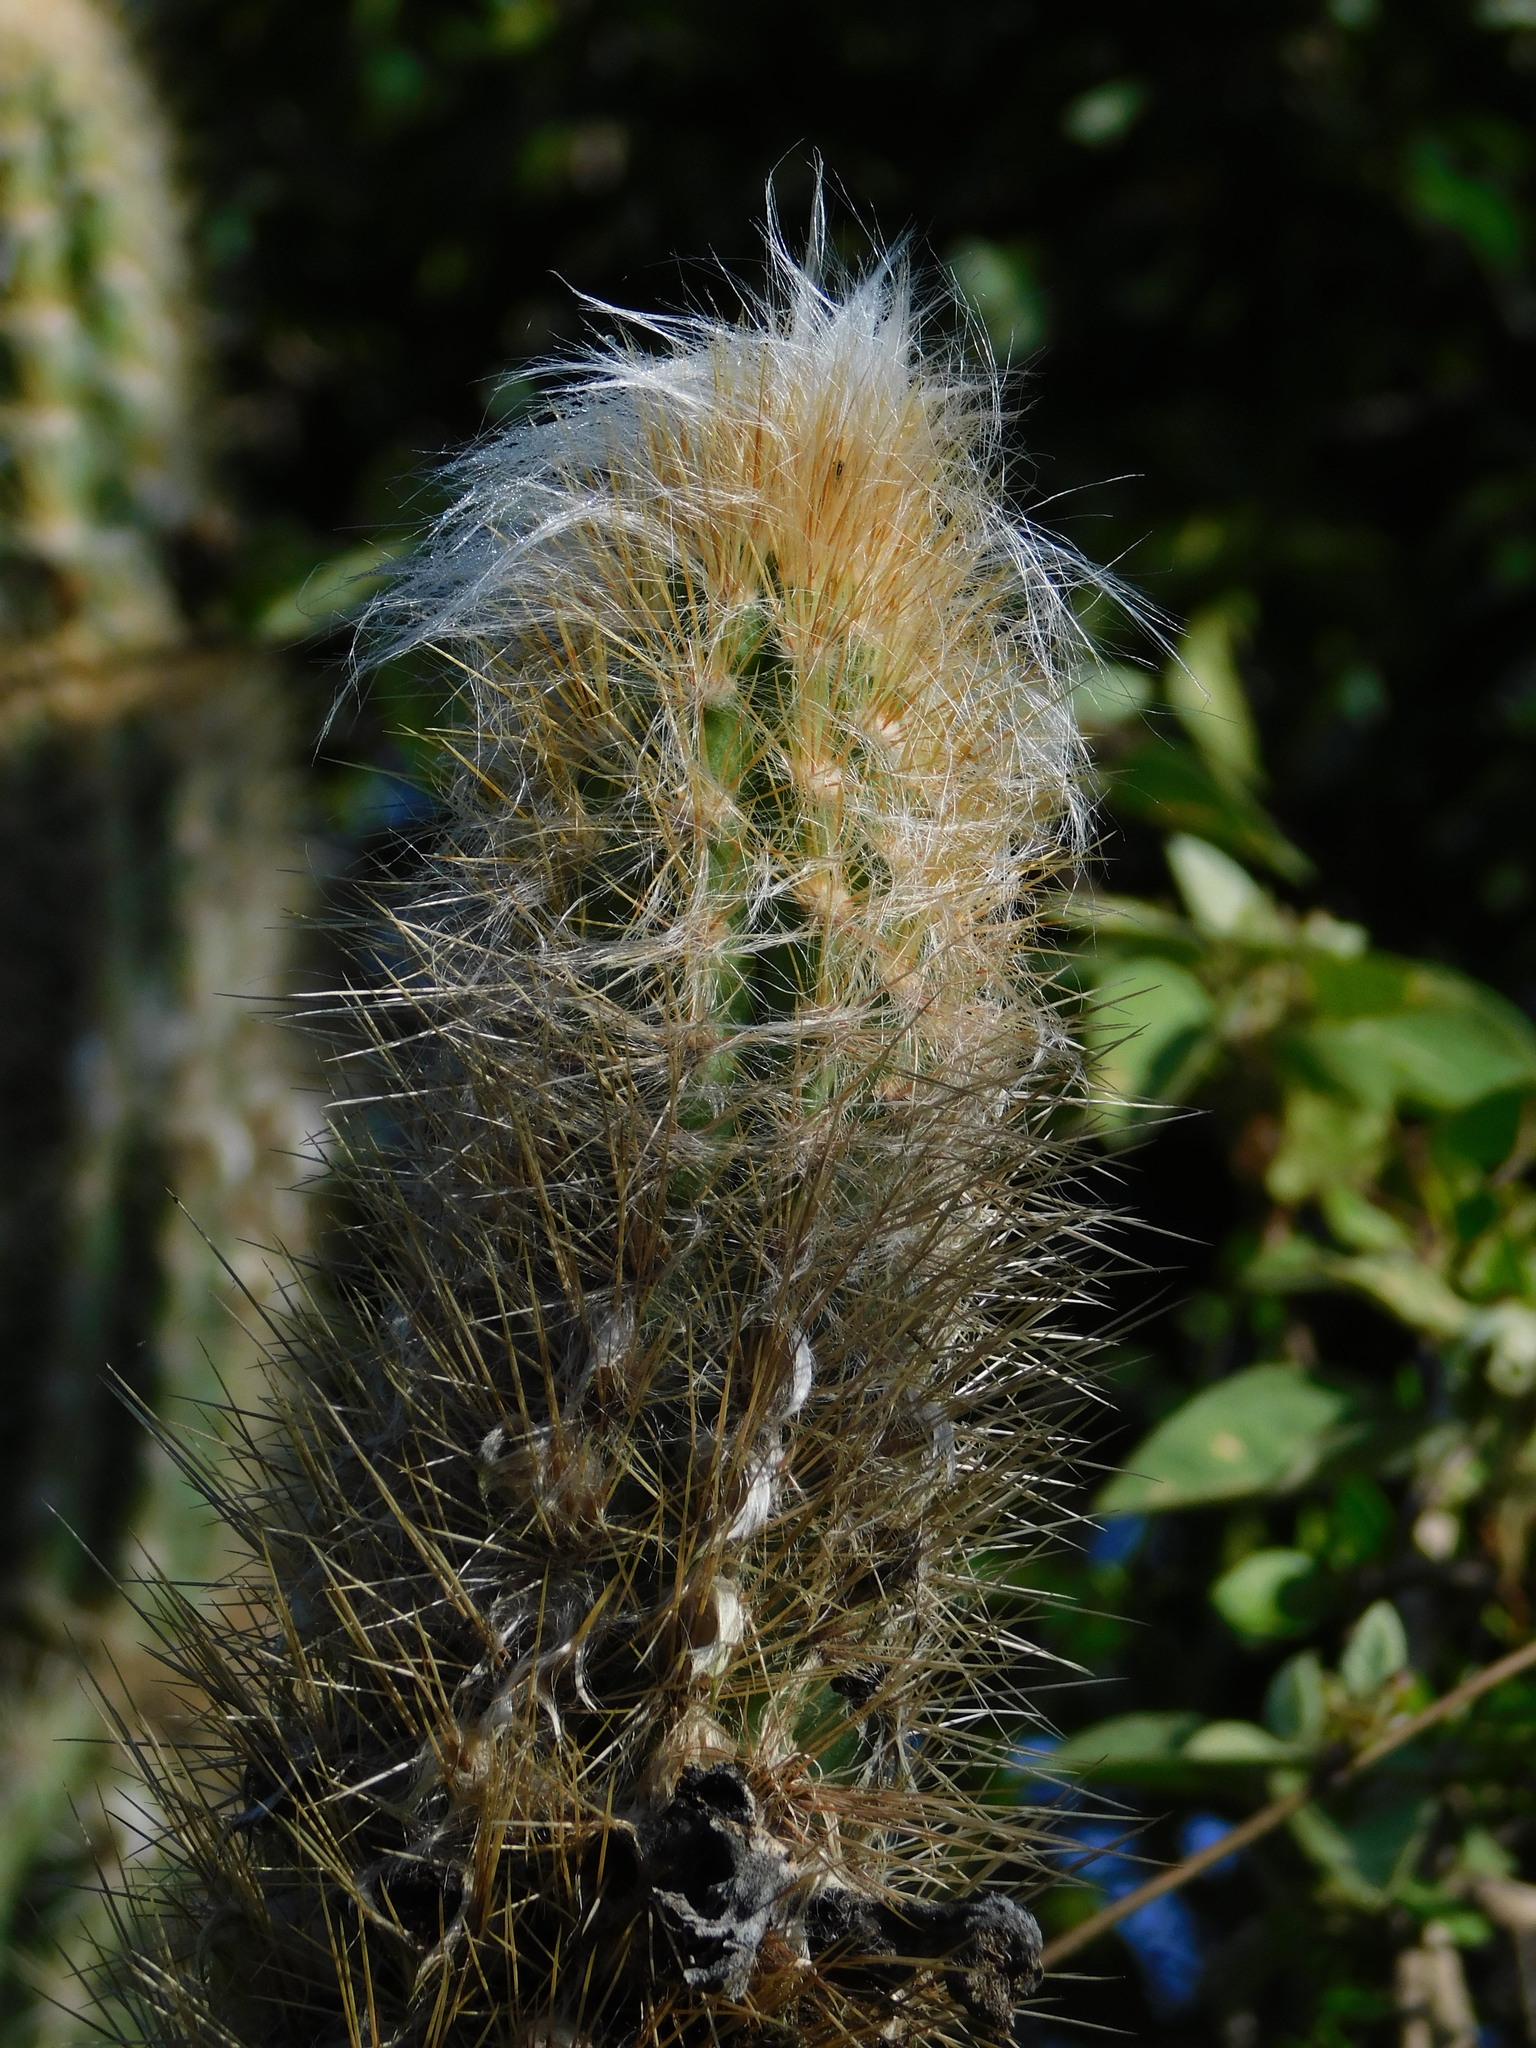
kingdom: Plantae
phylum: Tracheophyta
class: Magnoliopsida
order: Caryophyllales
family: Cactaceae
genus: Pilosocereus
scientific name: Pilosocereus gaumeri
